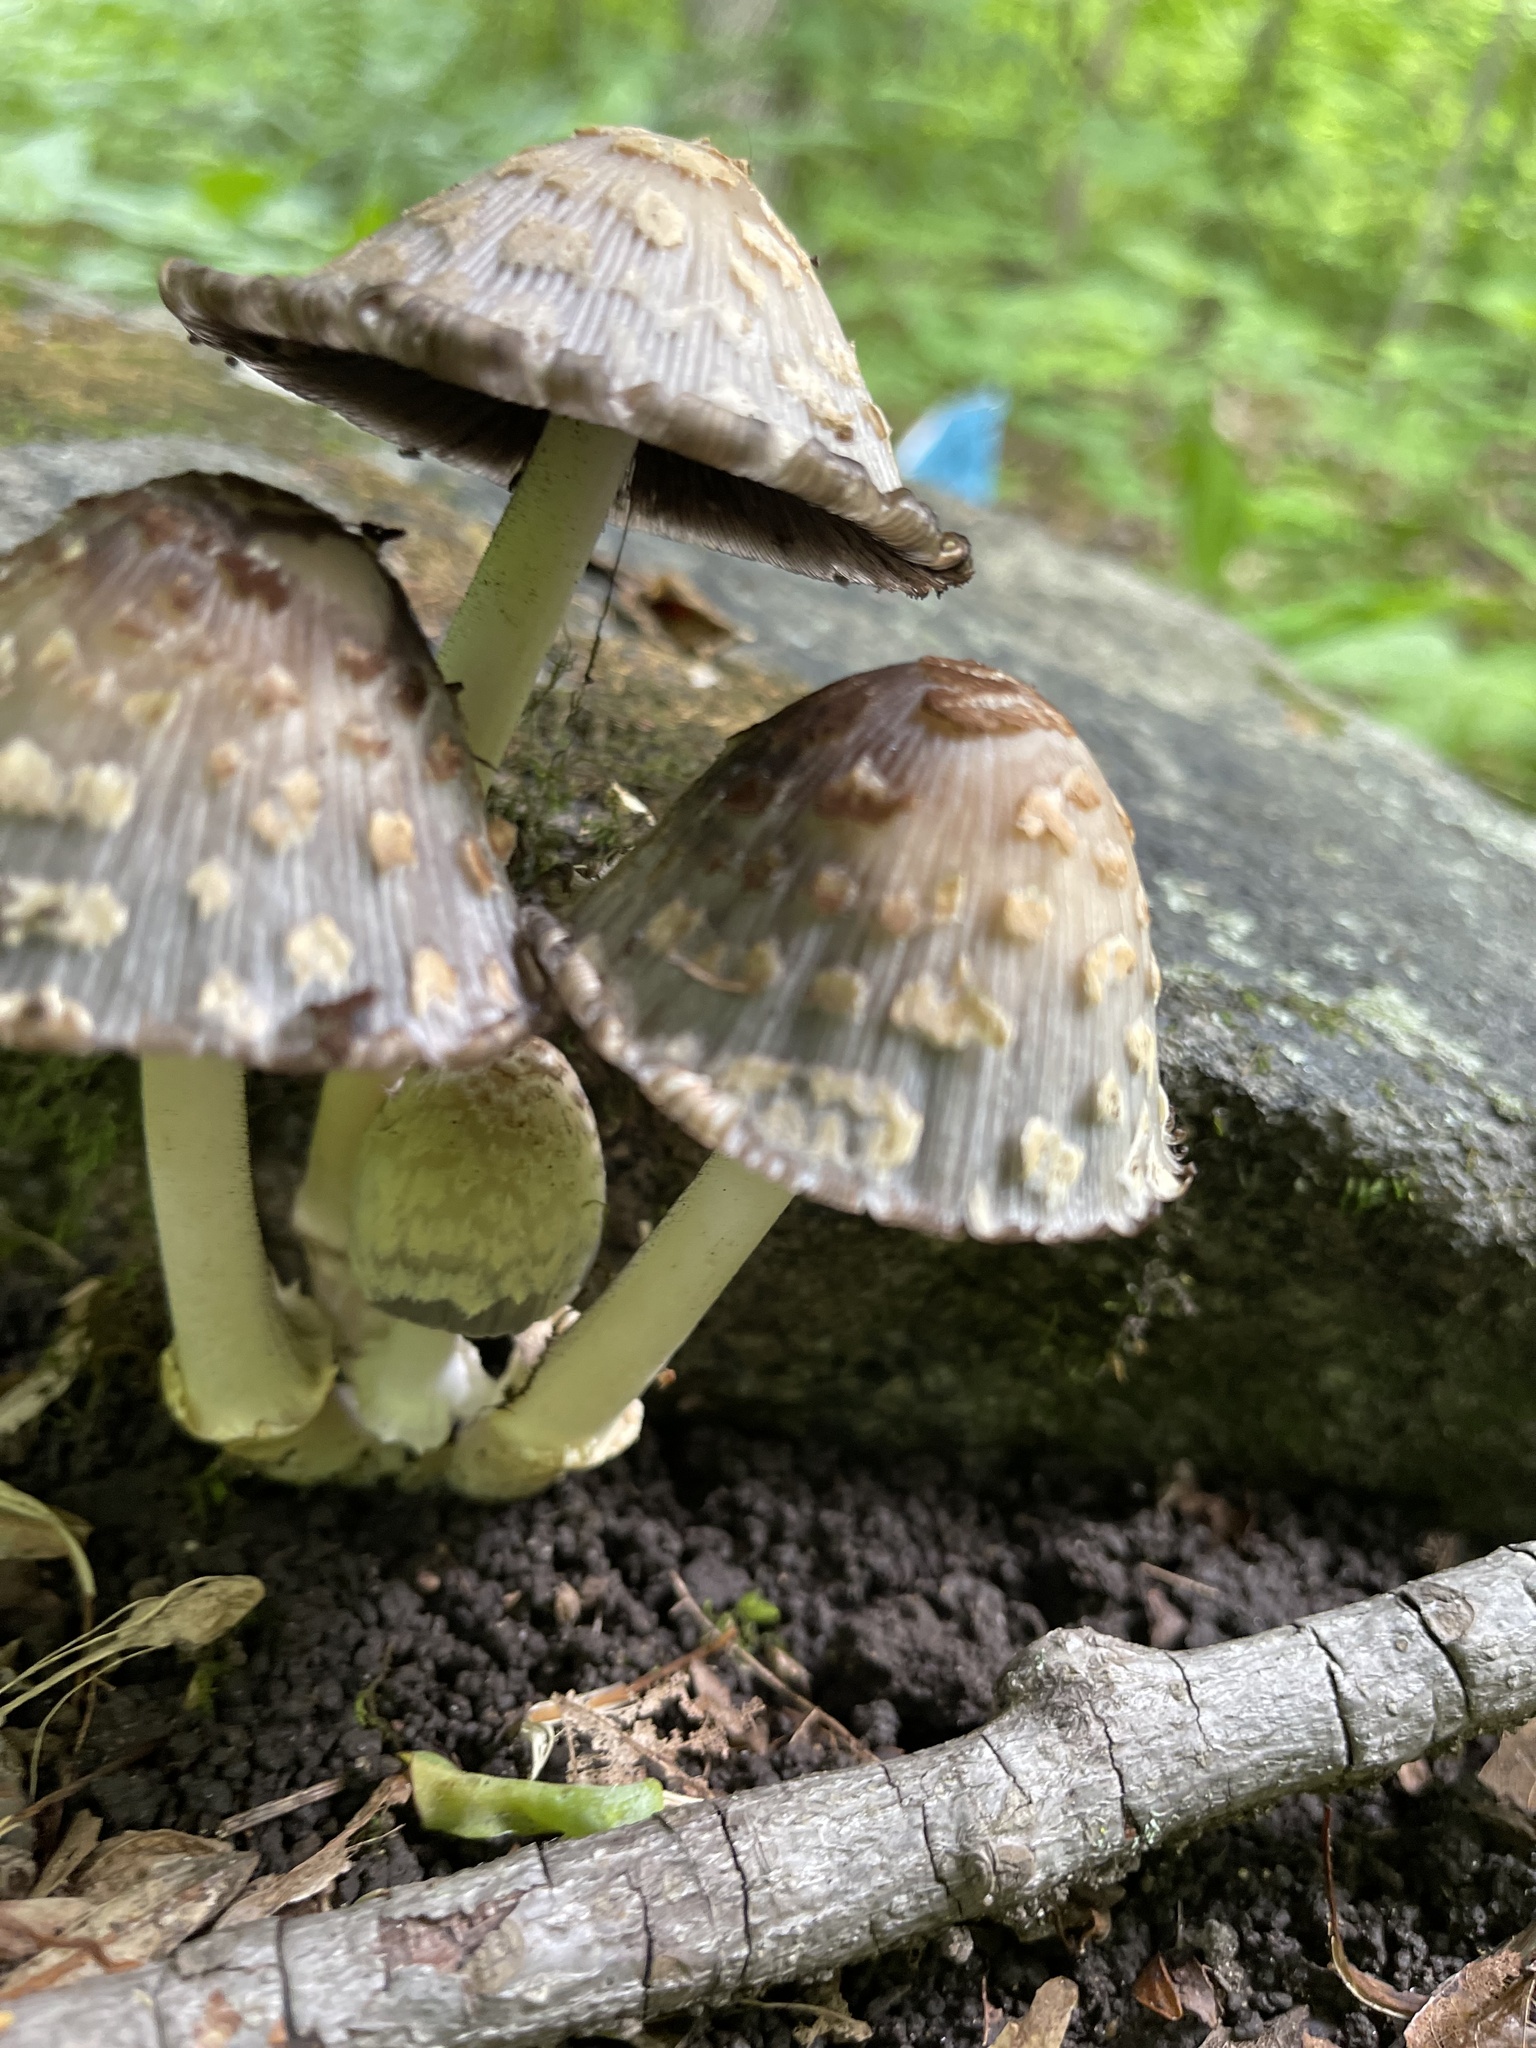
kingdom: Fungi
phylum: Basidiomycota
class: Agaricomycetes
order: Agaricales
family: Psathyrellaceae
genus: Coprinopsis
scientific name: Coprinopsis variegata
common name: Scaly ink cap
